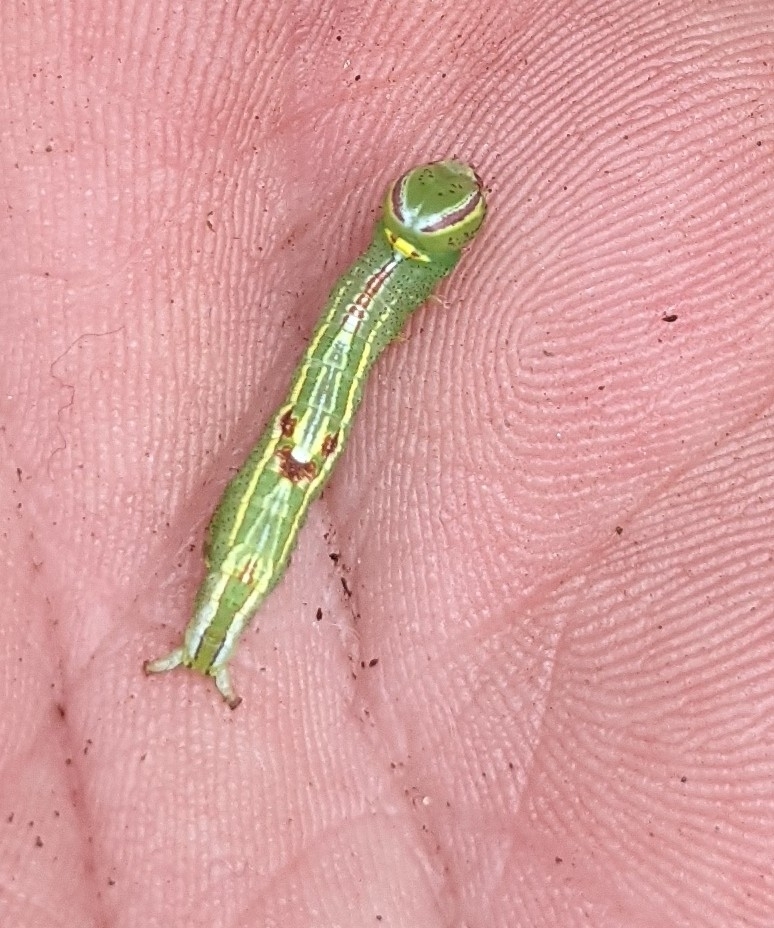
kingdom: Animalia
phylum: Arthropoda
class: Insecta
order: Lepidoptera
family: Notodontidae
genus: Disphragis
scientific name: Disphragis Cecrita guttivitta
